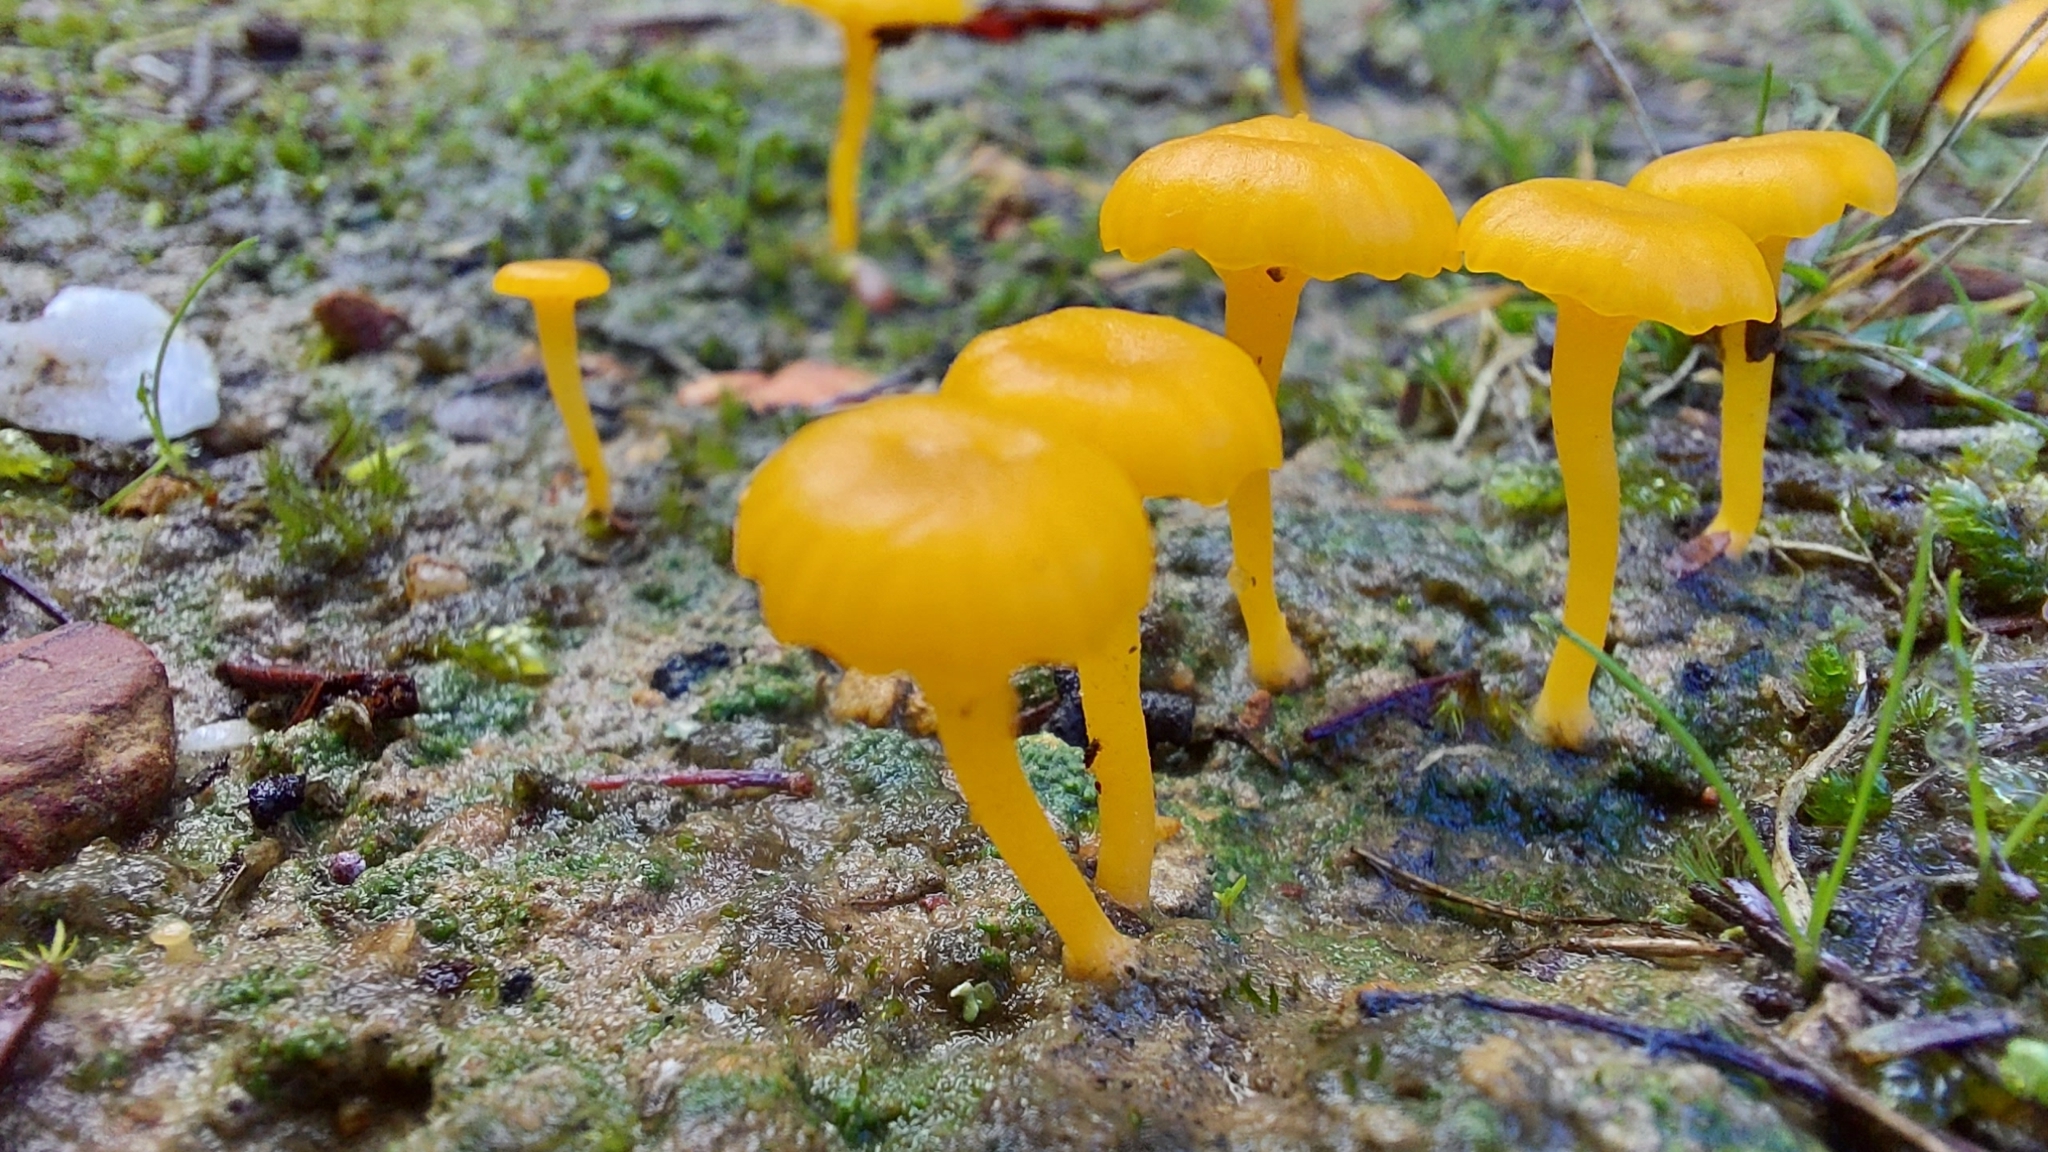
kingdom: Fungi
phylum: Basidiomycota
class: Agaricomycetes
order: Agaricales
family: Hygrophoraceae
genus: Lichenomphalia
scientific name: Lichenomphalia chromacea
